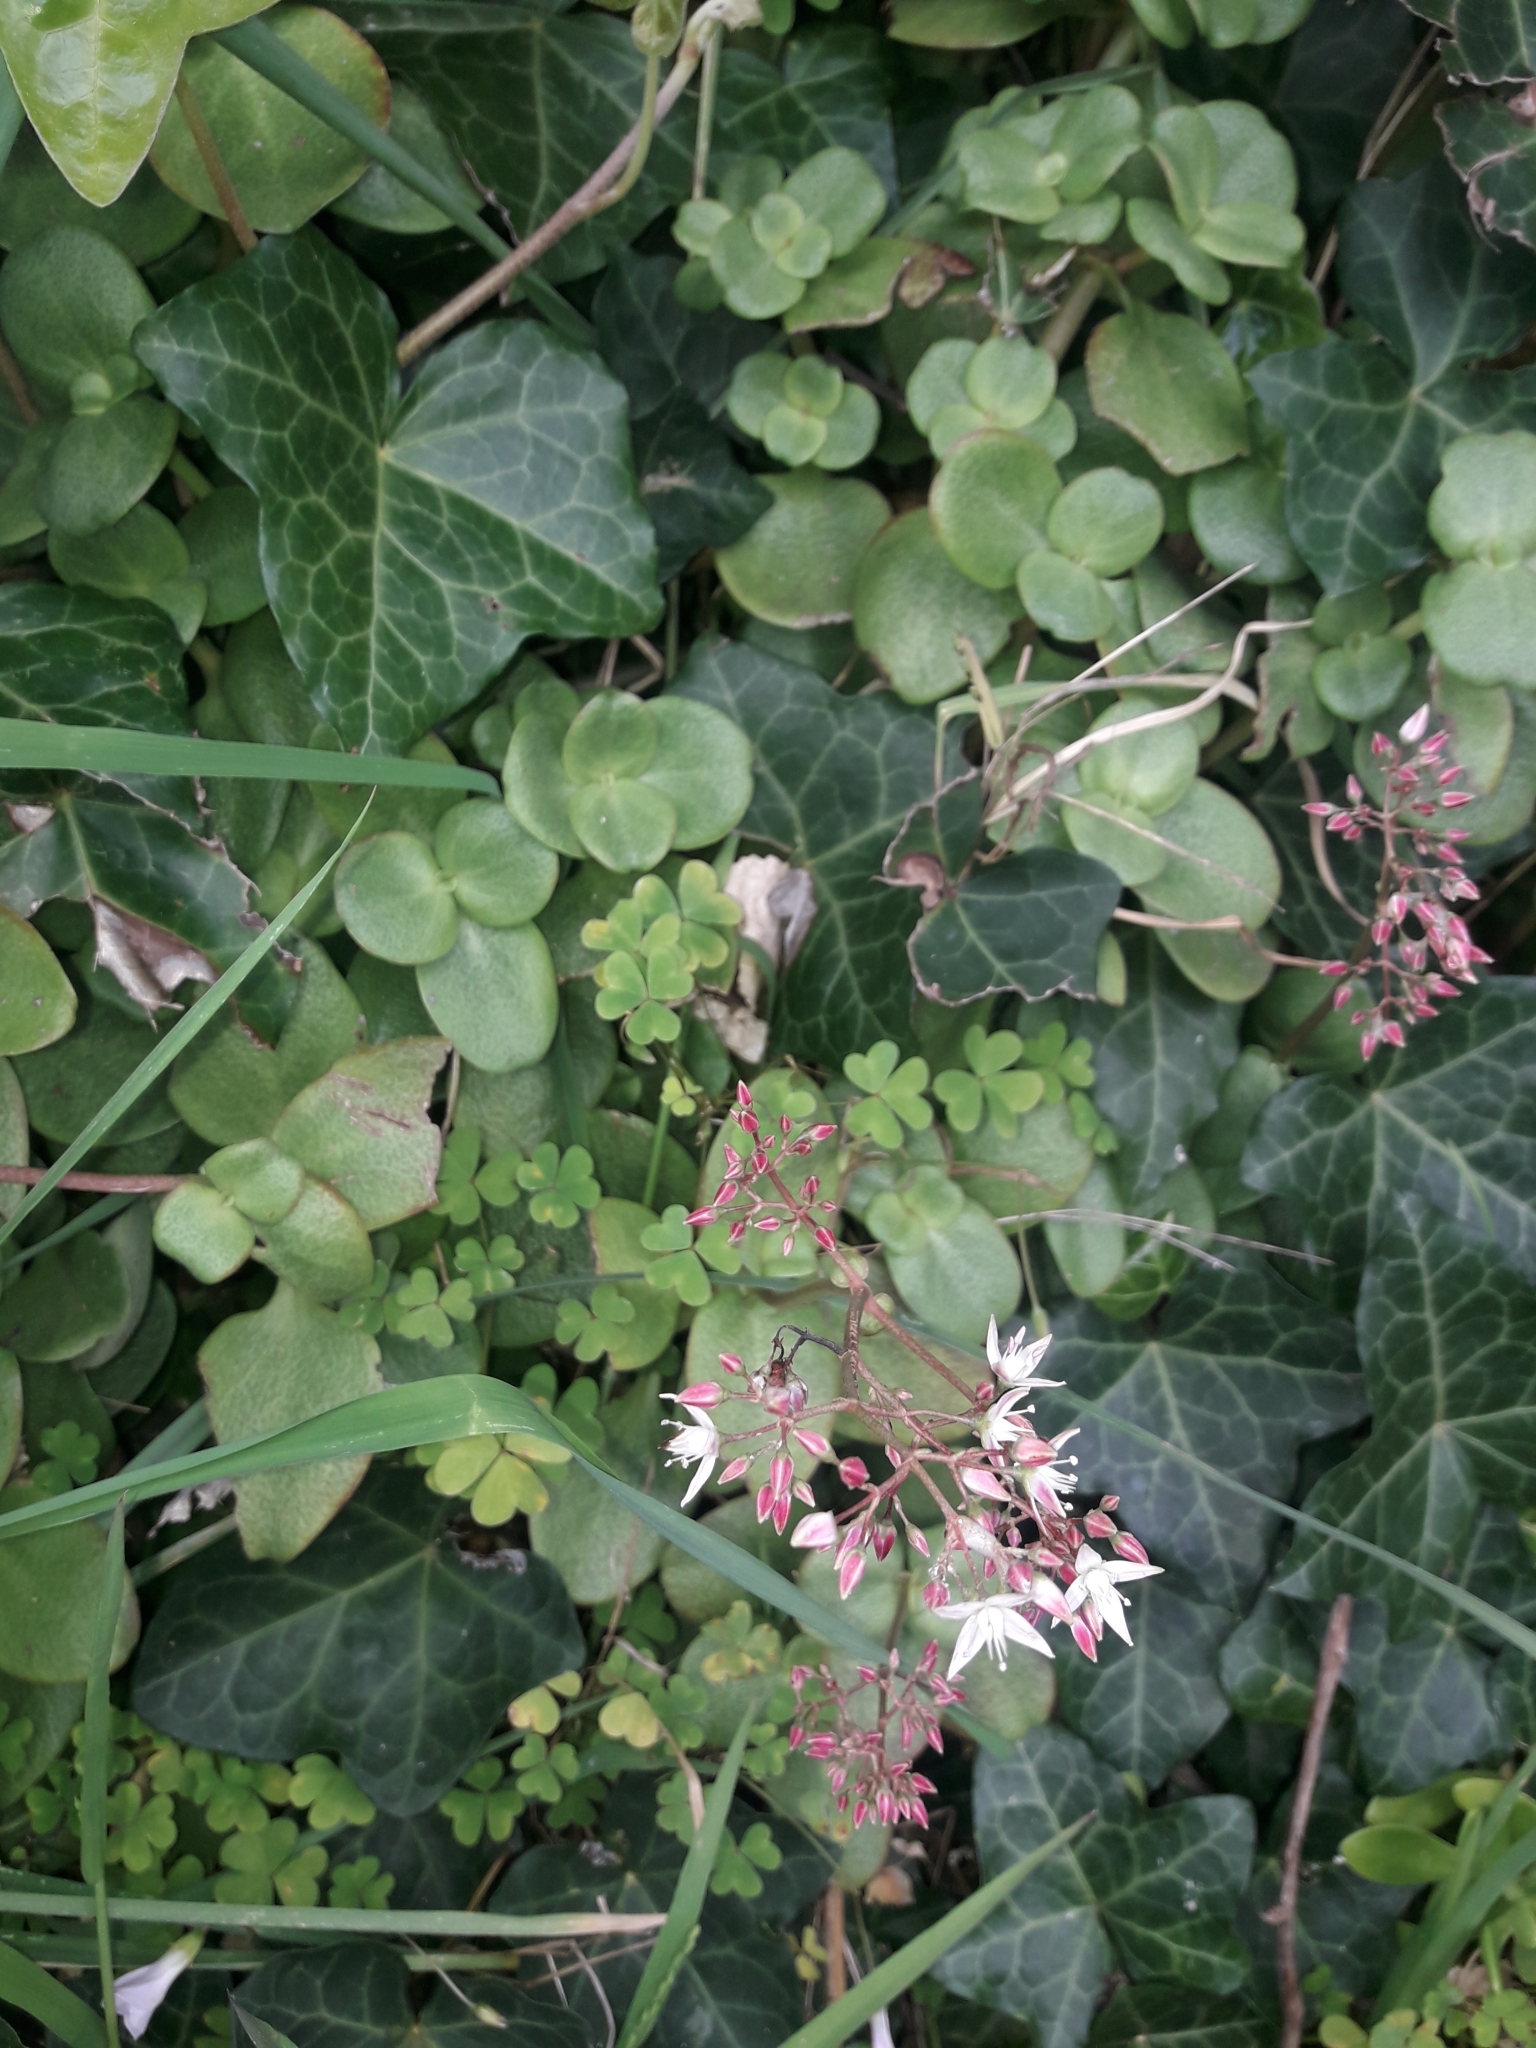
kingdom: Plantae
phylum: Tracheophyta
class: Magnoliopsida
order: Saxifragales
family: Crassulaceae
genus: Crassula
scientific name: Crassula multicava
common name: Cape province pygmyweed
